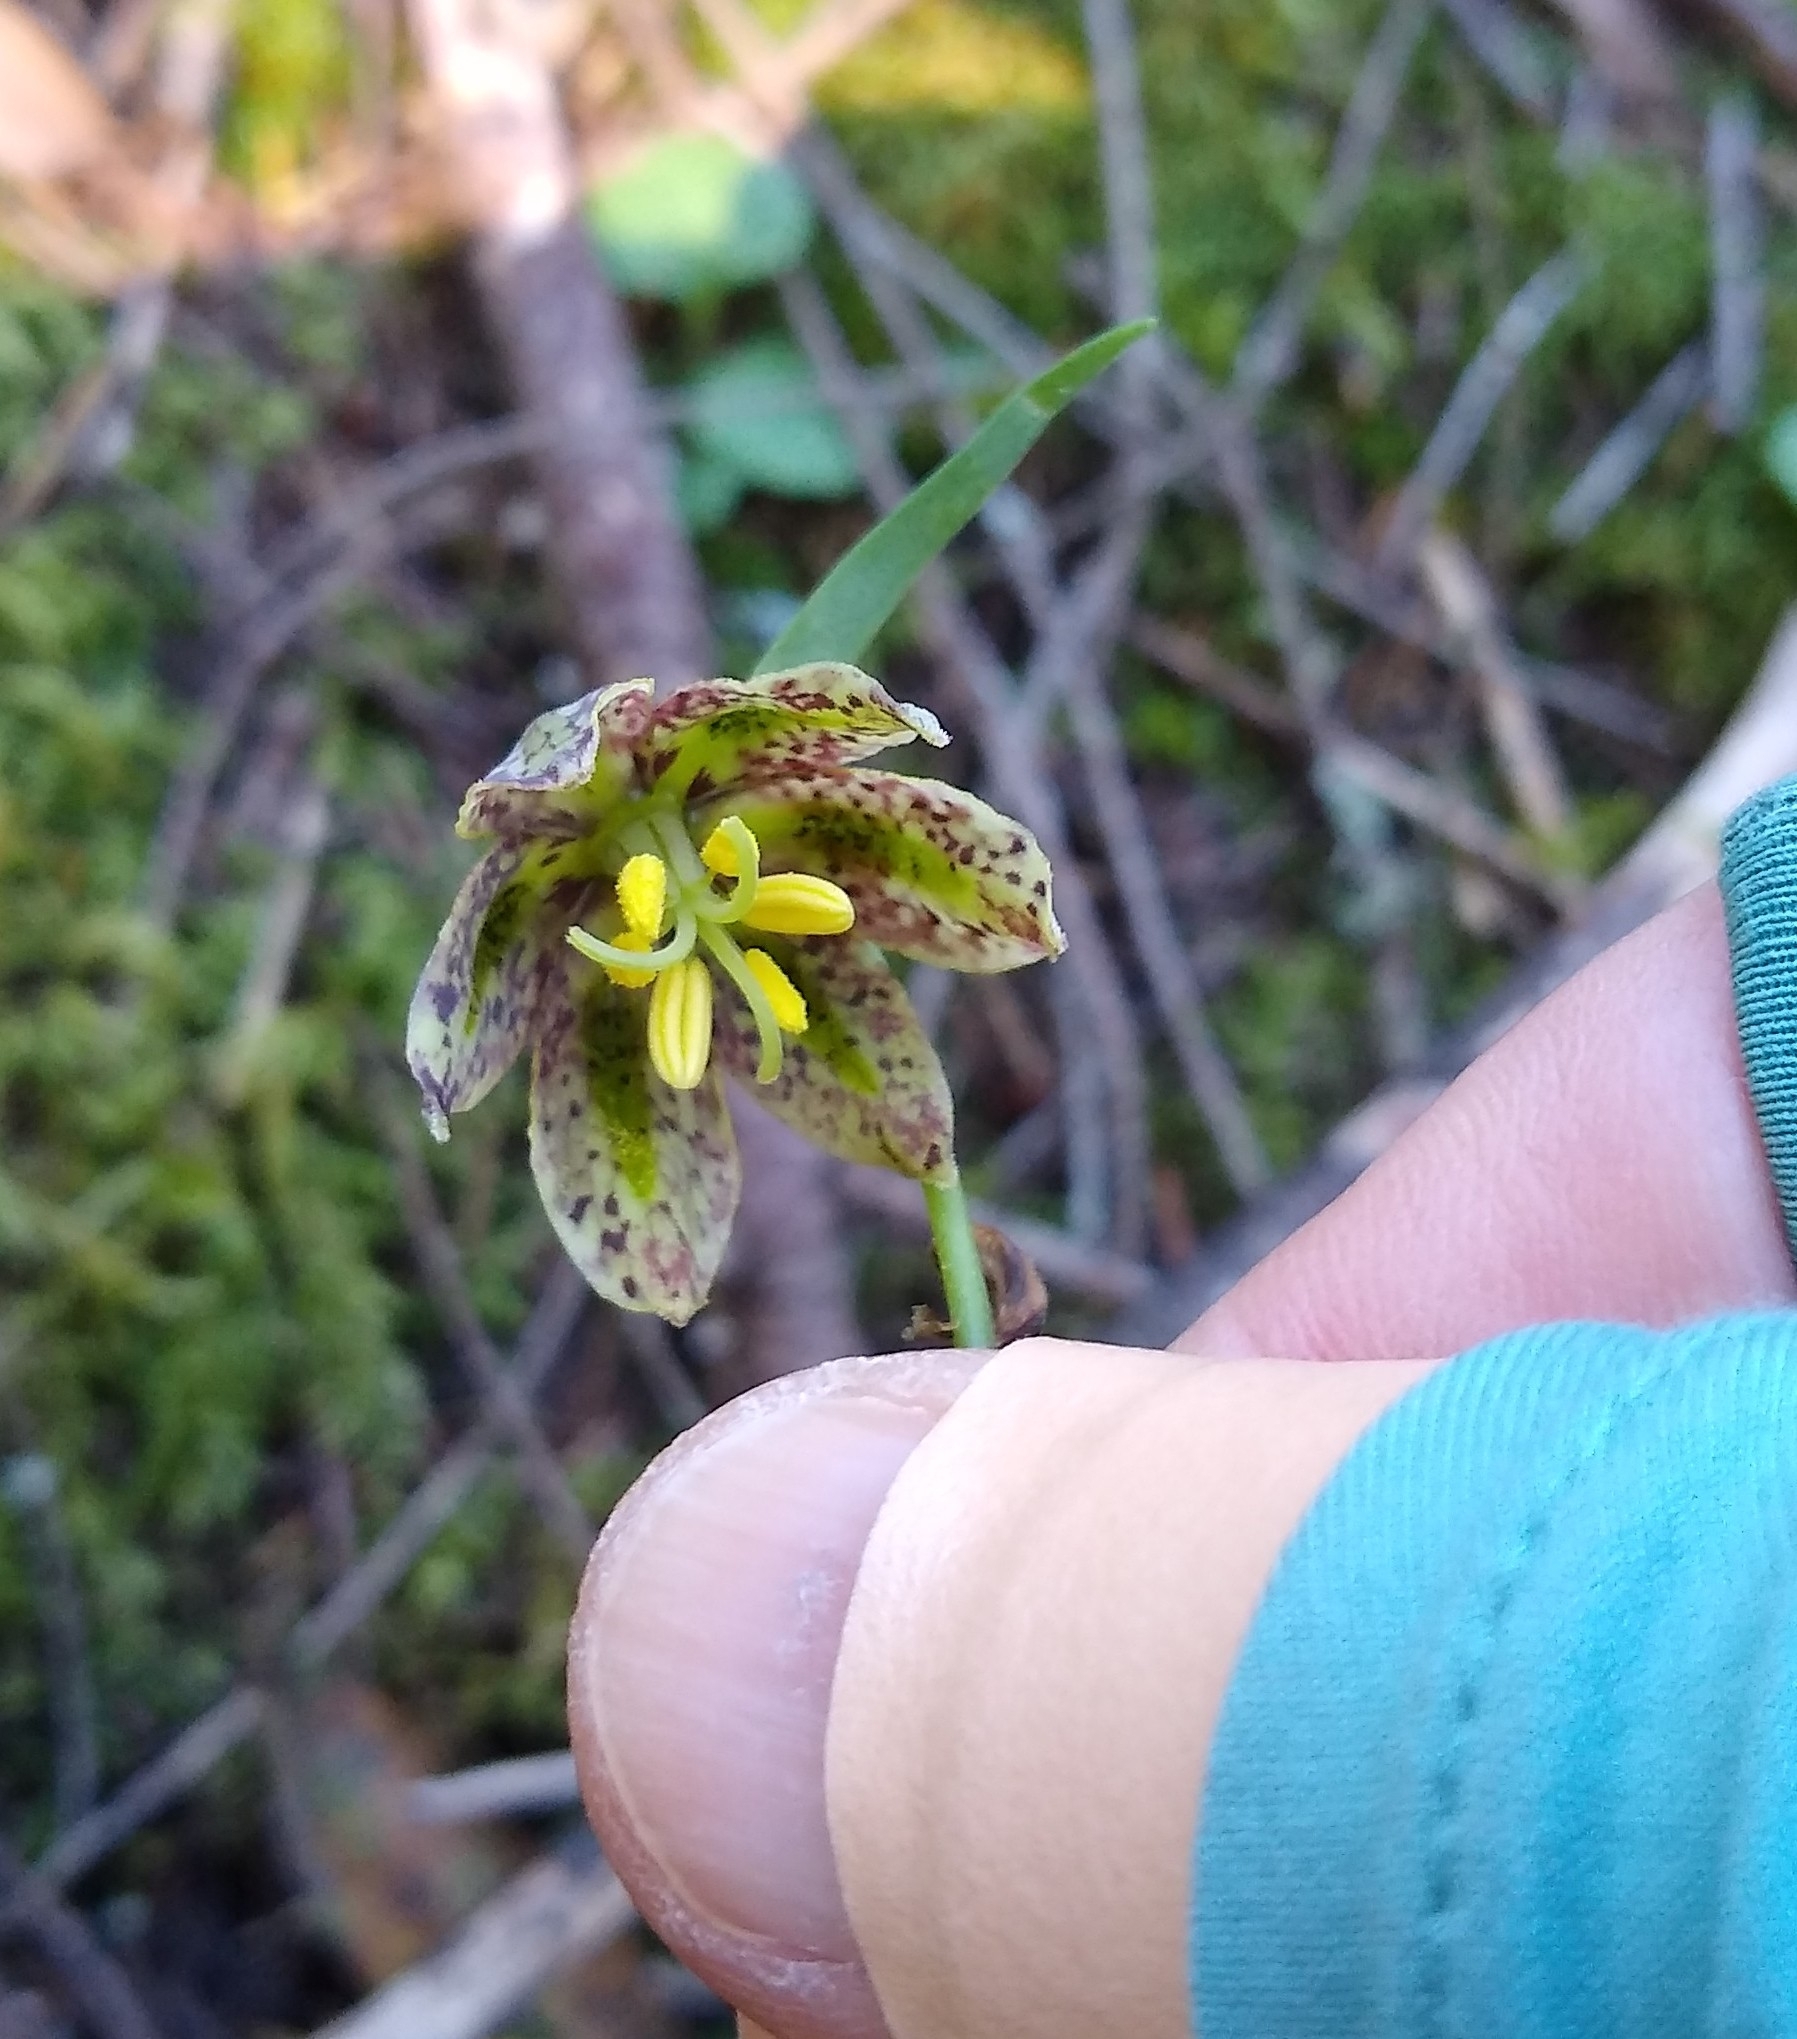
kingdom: Plantae
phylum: Tracheophyta
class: Liliopsida
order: Liliales
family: Liliaceae
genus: Fritillaria
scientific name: Fritillaria affinis
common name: Ojai fritillary
